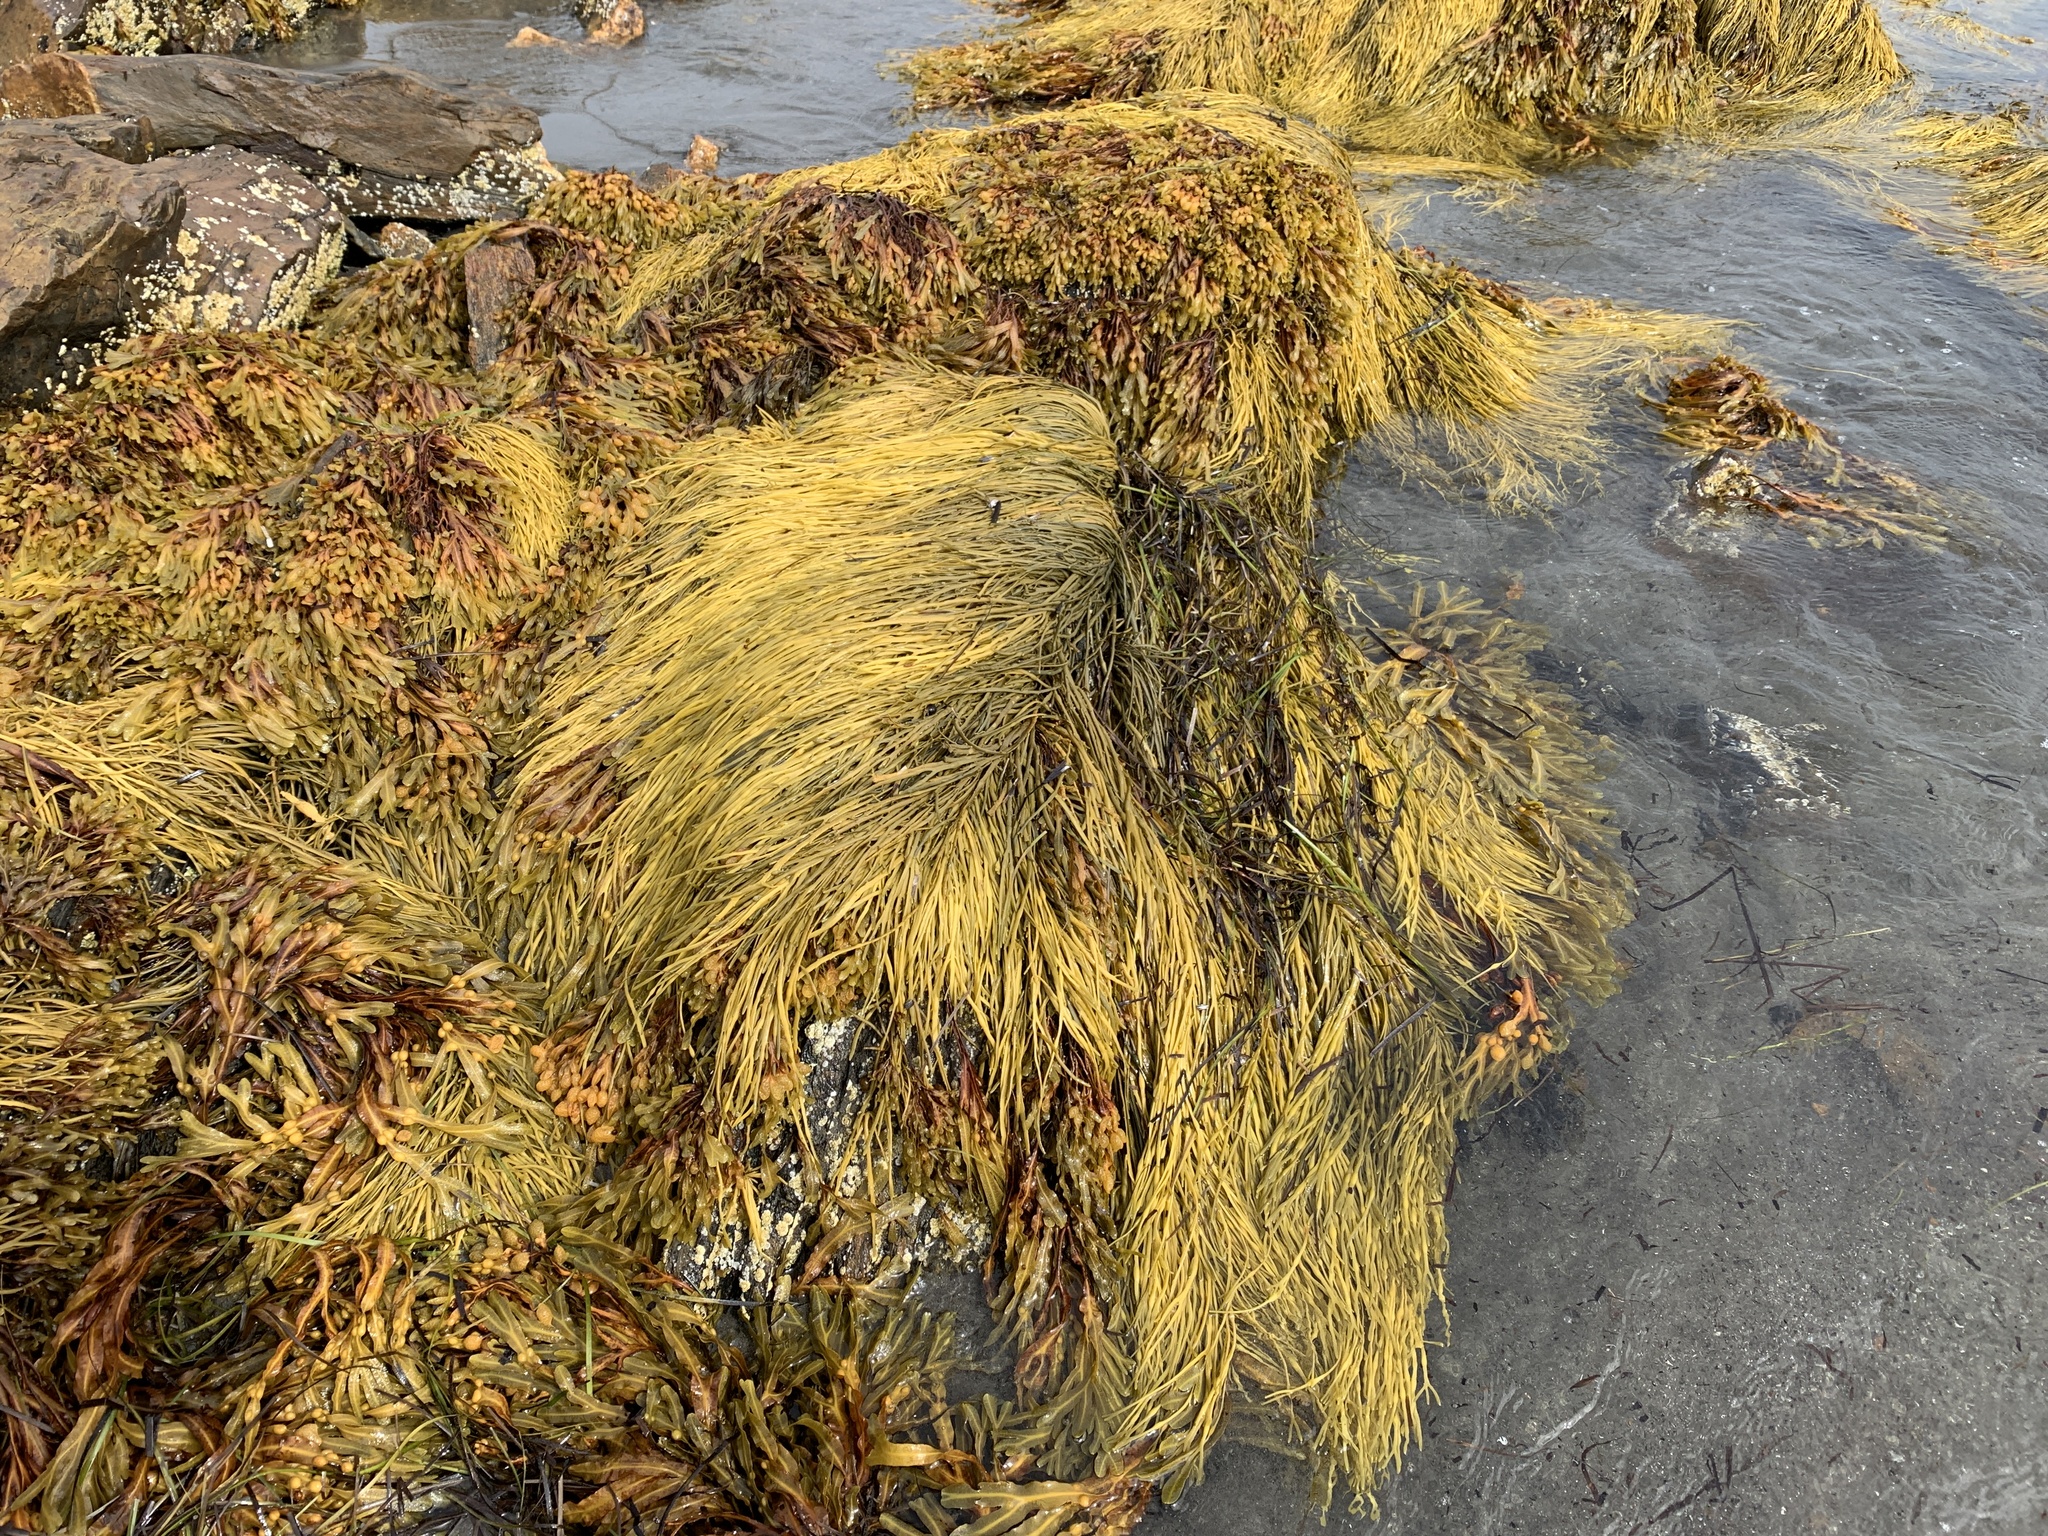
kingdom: Chromista
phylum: Ochrophyta
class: Phaeophyceae
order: Fucales
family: Fucaceae
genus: Ascophyllum
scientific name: Ascophyllum nodosum
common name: Knotted wrack
